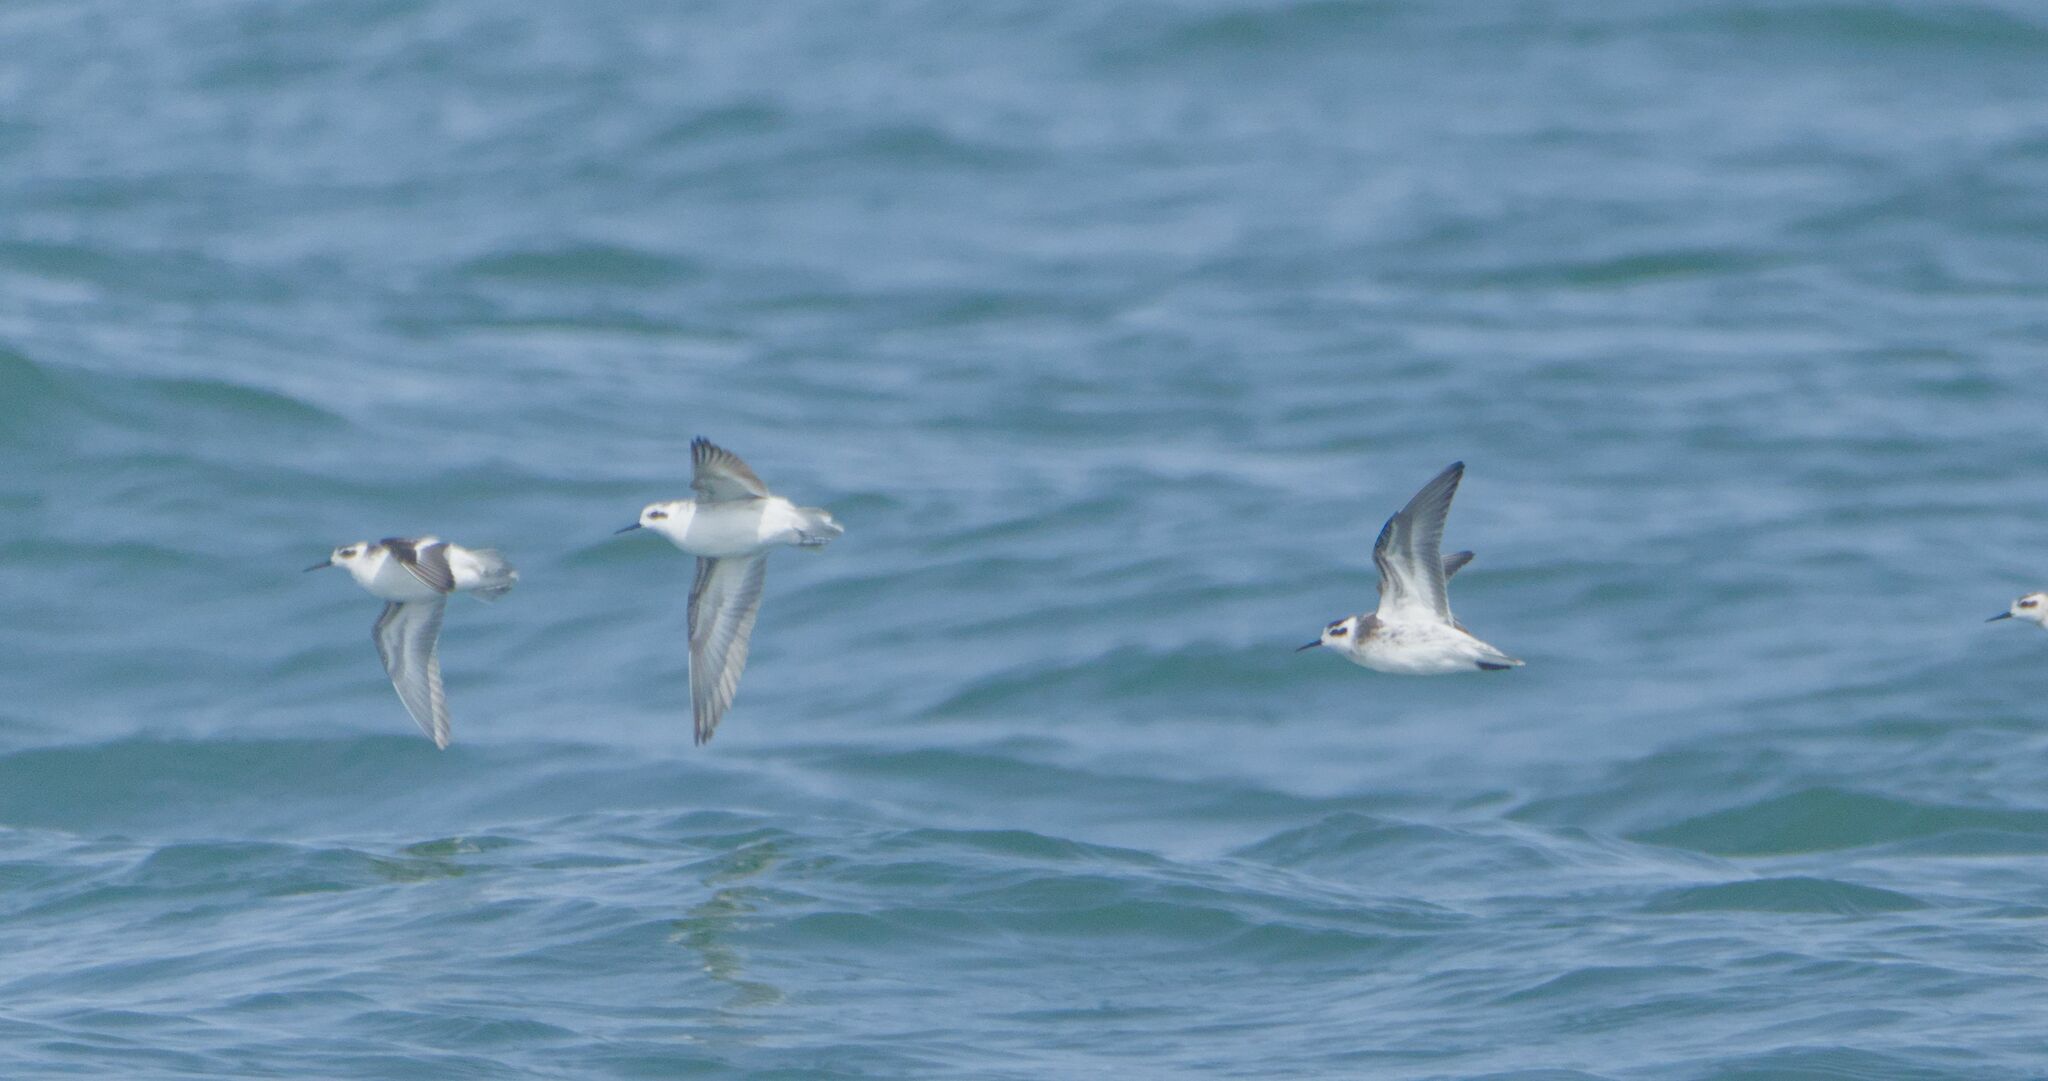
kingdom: Animalia
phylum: Chordata
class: Aves
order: Charadriiformes
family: Scolopacidae
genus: Phalaropus
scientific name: Phalaropus lobatus
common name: Red-necked phalarope
